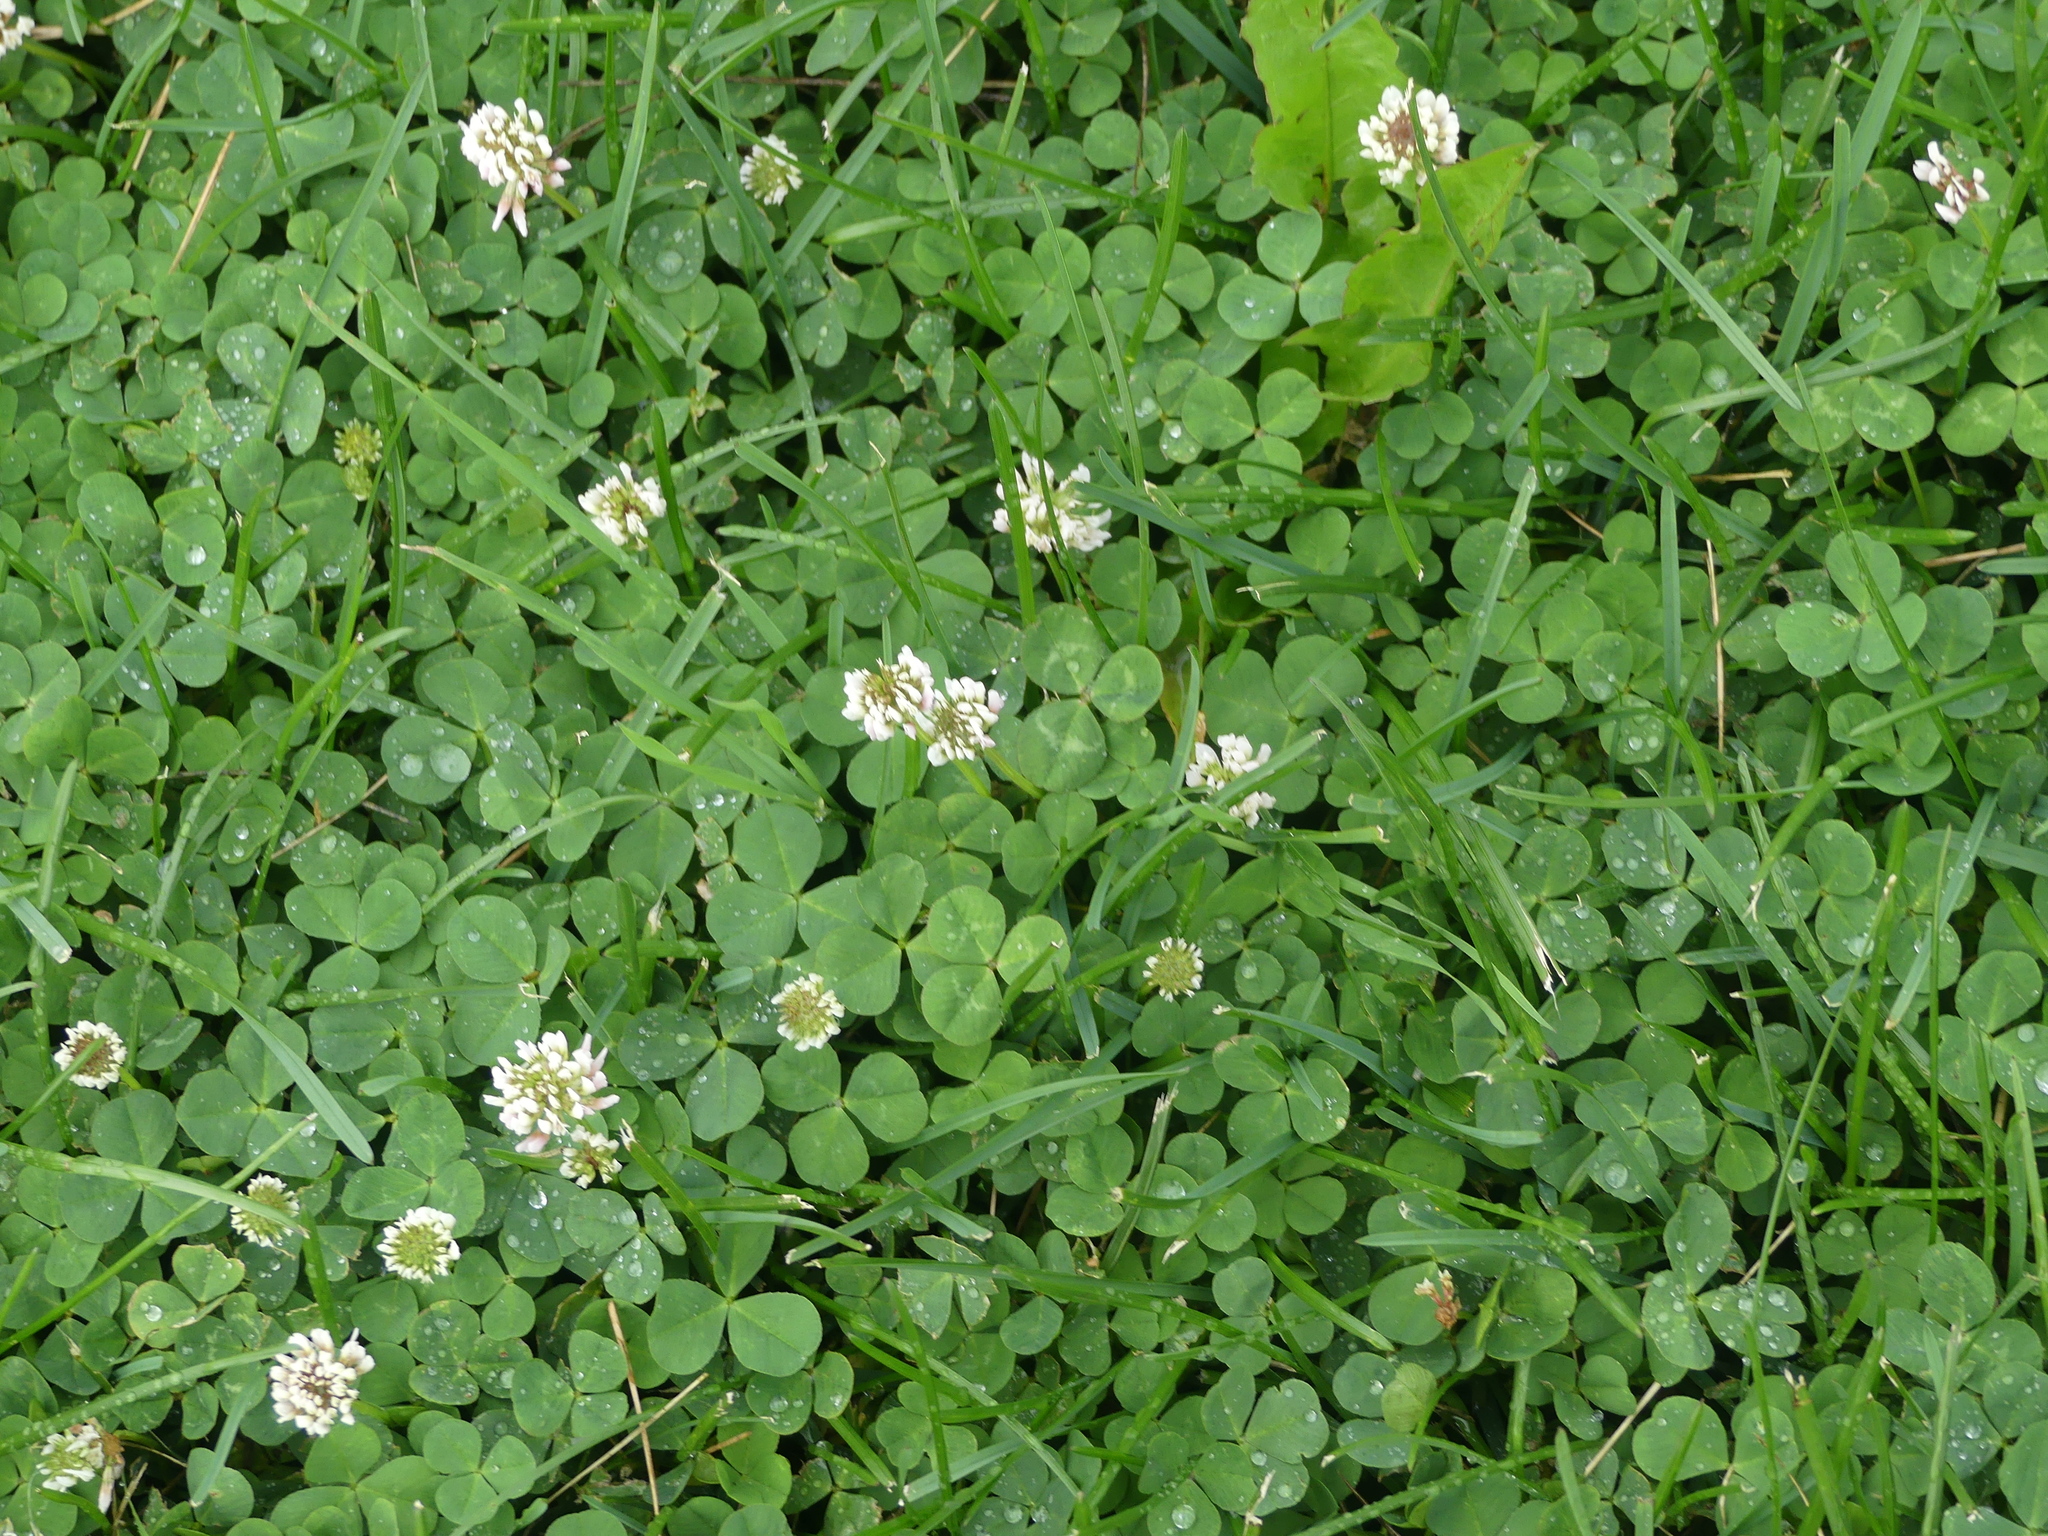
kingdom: Plantae
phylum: Tracheophyta
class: Magnoliopsida
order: Fabales
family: Fabaceae
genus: Trifolium
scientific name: Trifolium repens
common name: White clover
